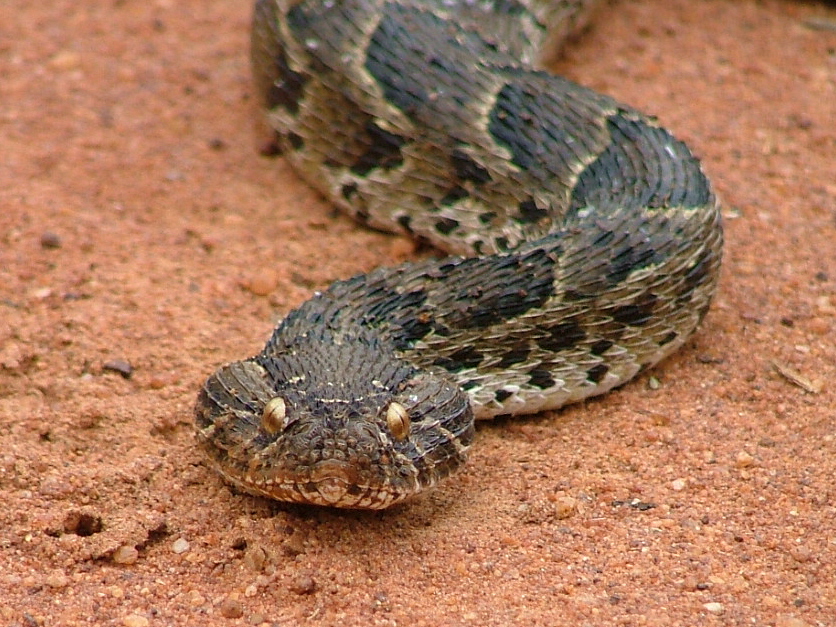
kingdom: Animalia
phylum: Chordata
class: Squamata
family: Viperidae
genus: Bitis
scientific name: Bitis arietans
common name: Puff adder
